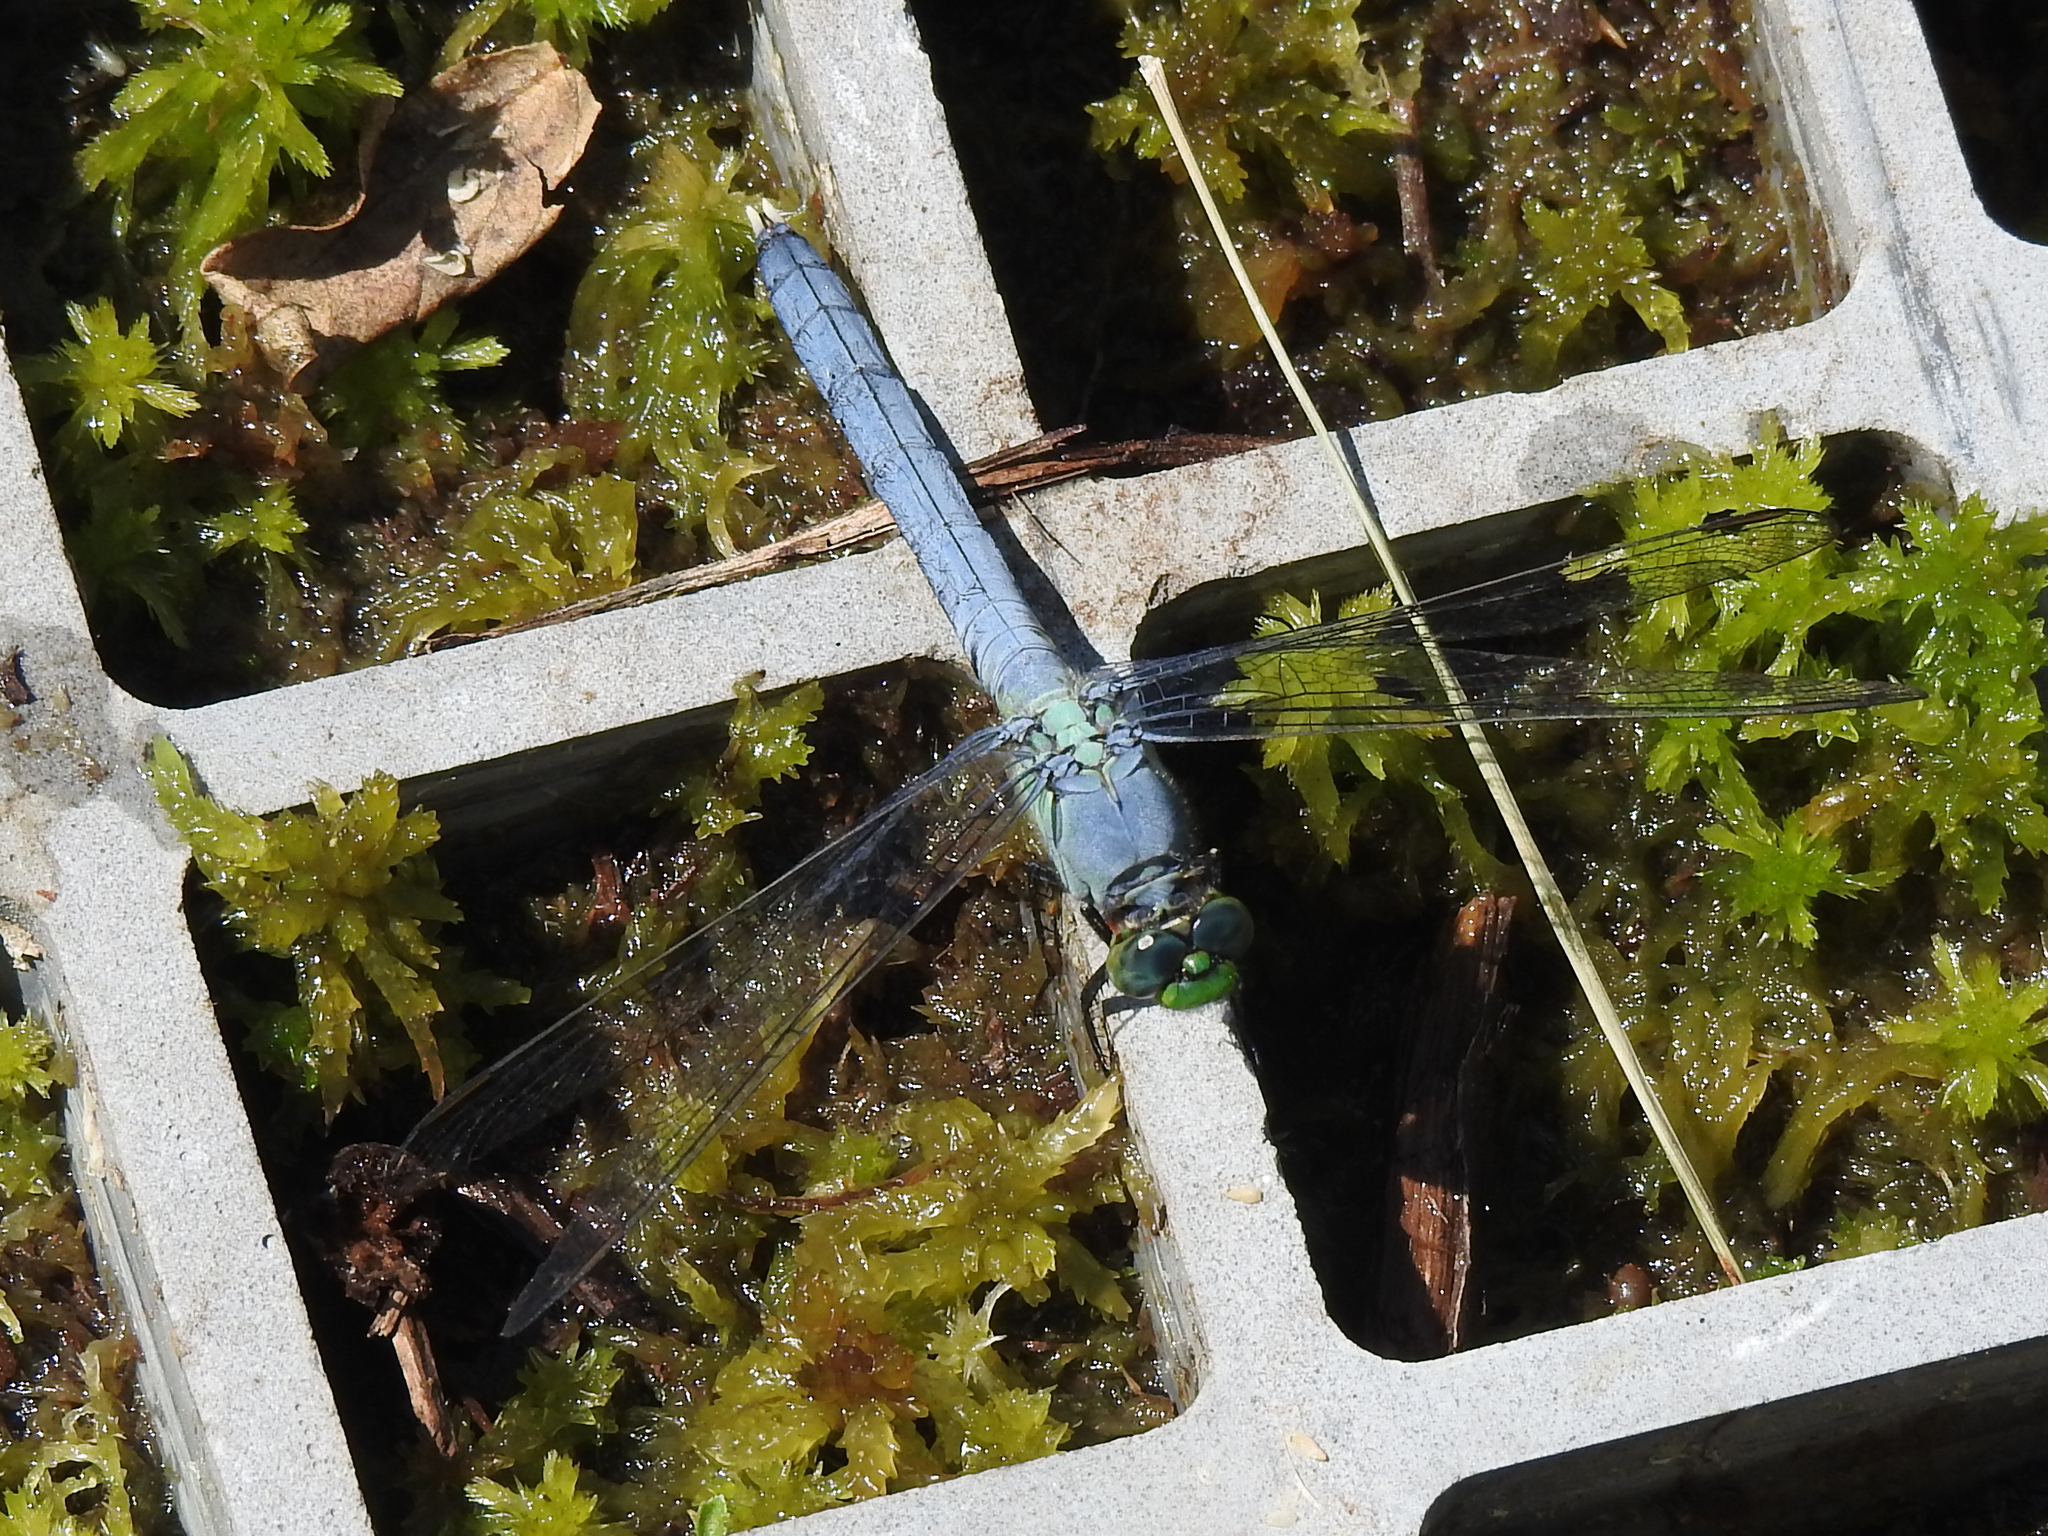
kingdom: Animalia
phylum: Arthropoda
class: Insecta
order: Odonata
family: Libellulidae
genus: Erythemis
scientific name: Erythemis simplicicollis
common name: Eastern pondhawk
